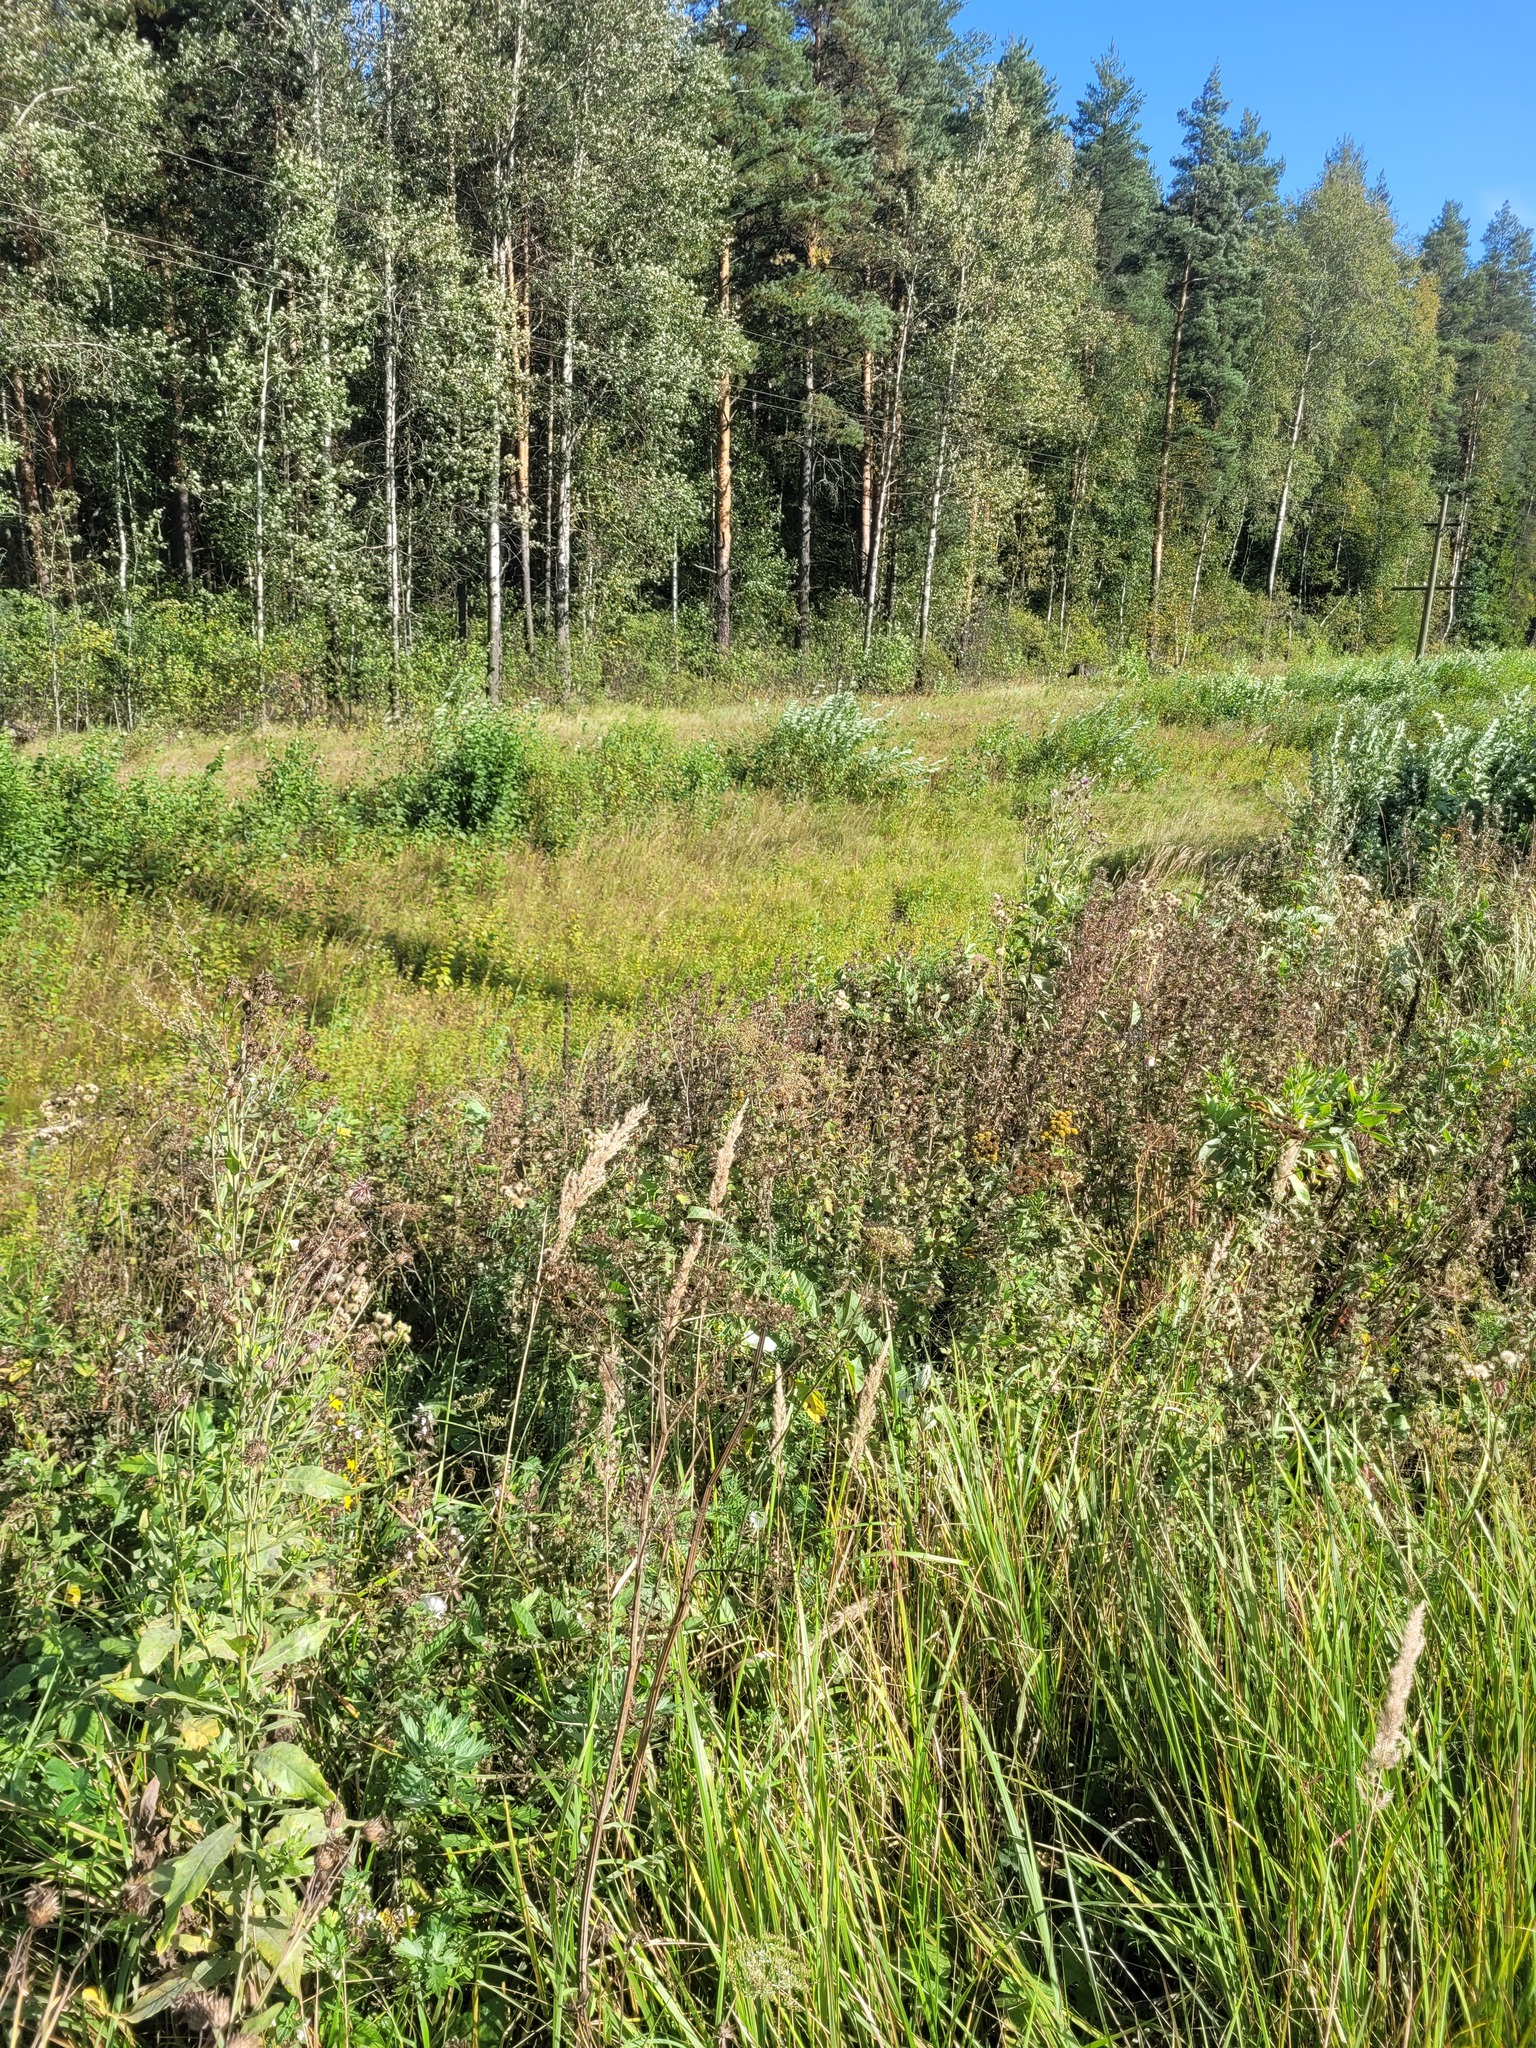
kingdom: Plantae
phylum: Tracheophyta
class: Liliopsida
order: Poales
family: Poaceae
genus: Calamagrostis
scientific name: Calamagrostis epigejos
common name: Wood small-reed
